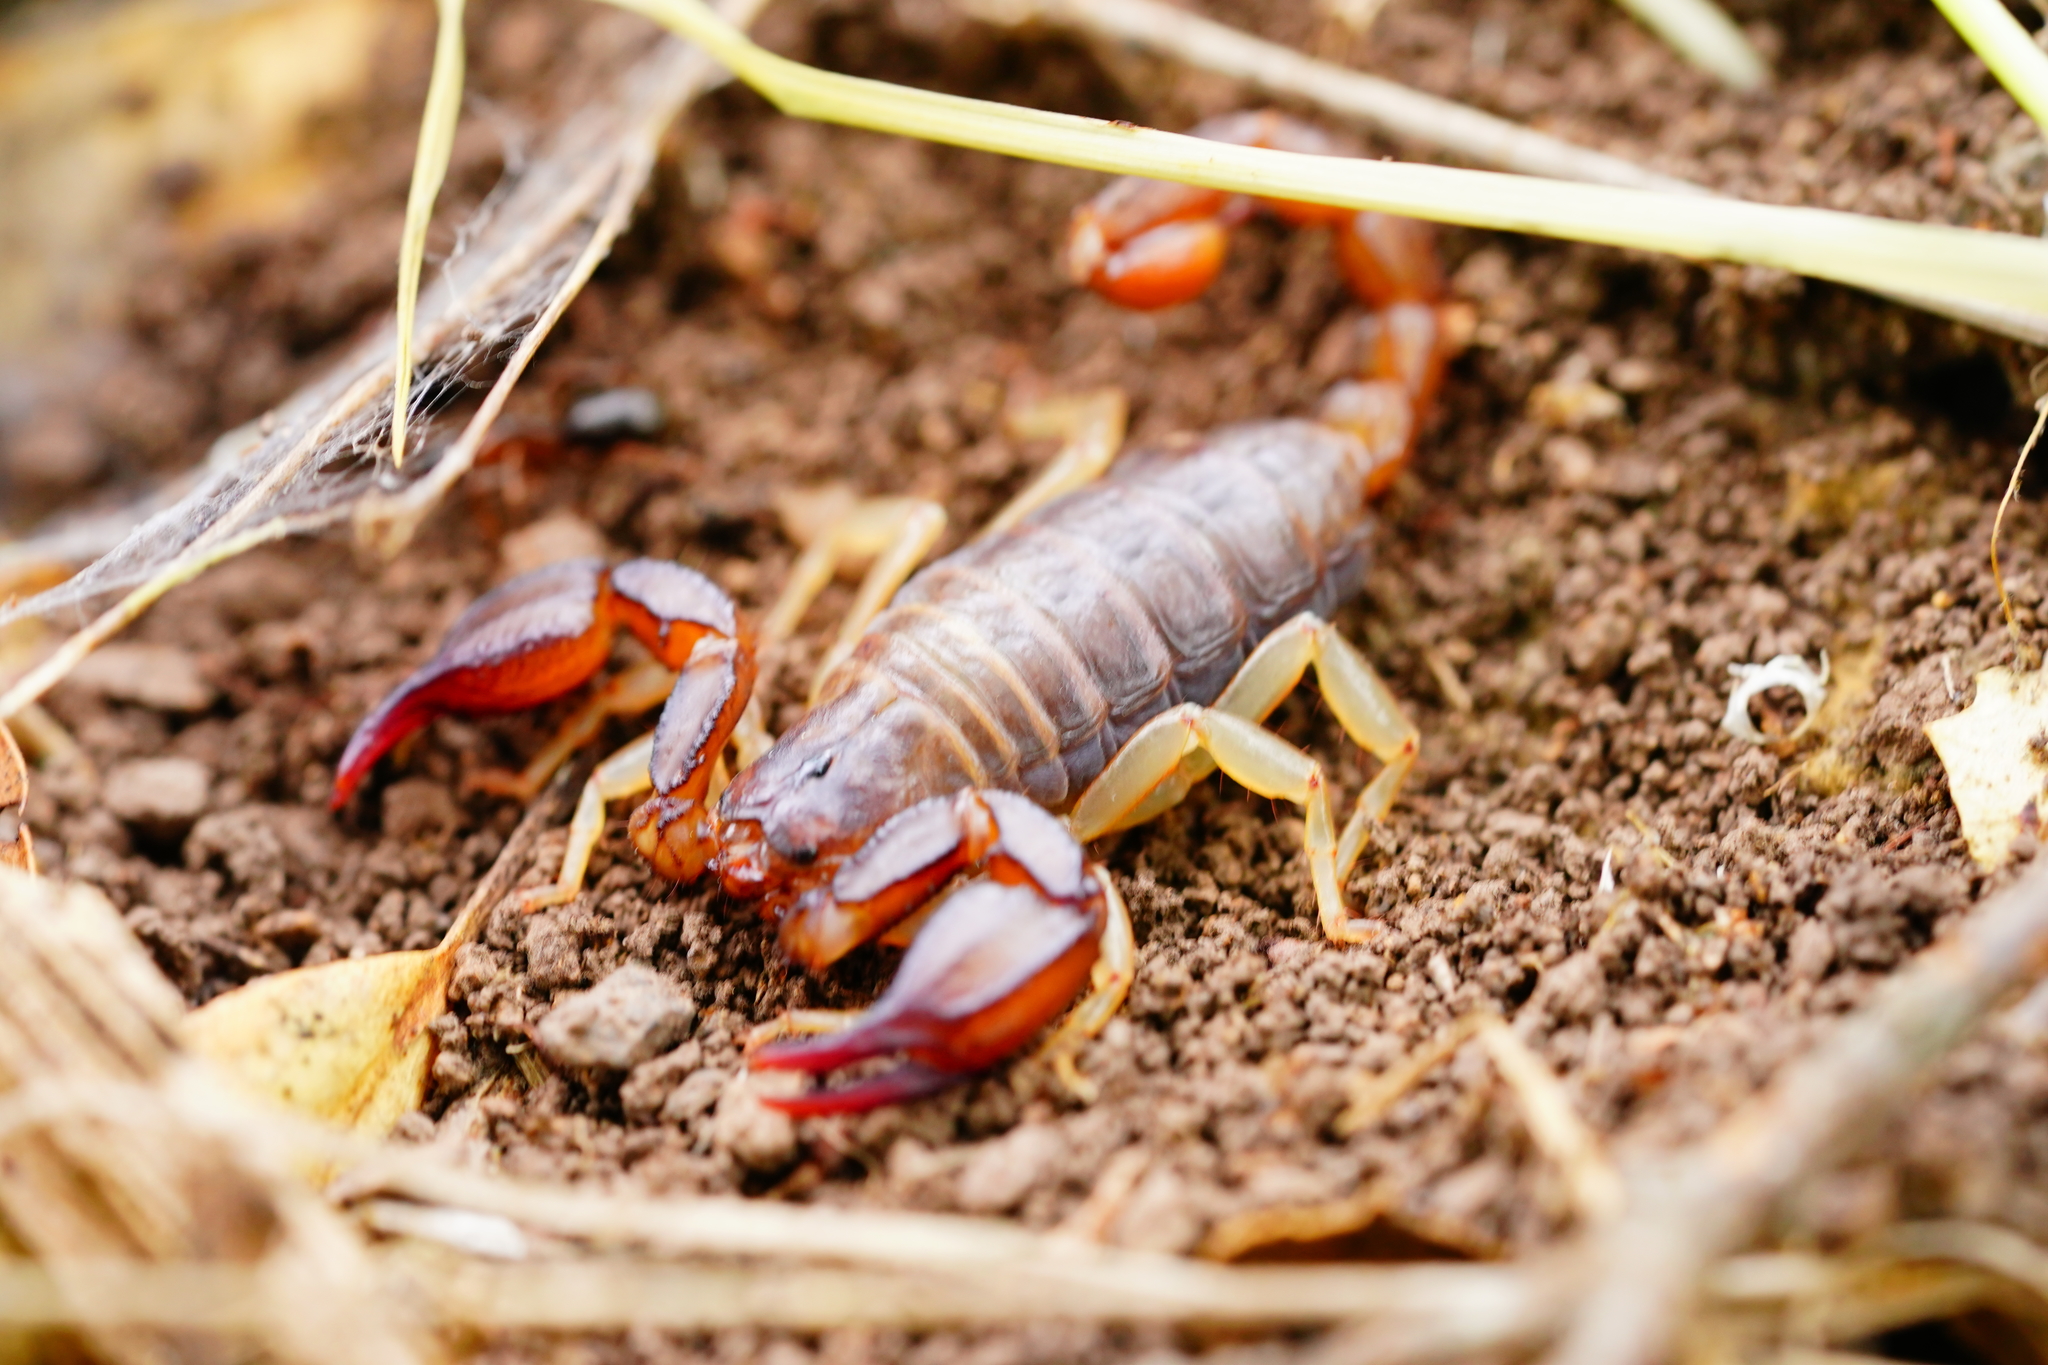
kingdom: Animalia
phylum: Arthropoda
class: Arachnida
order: Scorpiones
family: Chactidae
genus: Uroctonus
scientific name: Uroctonus mordax
